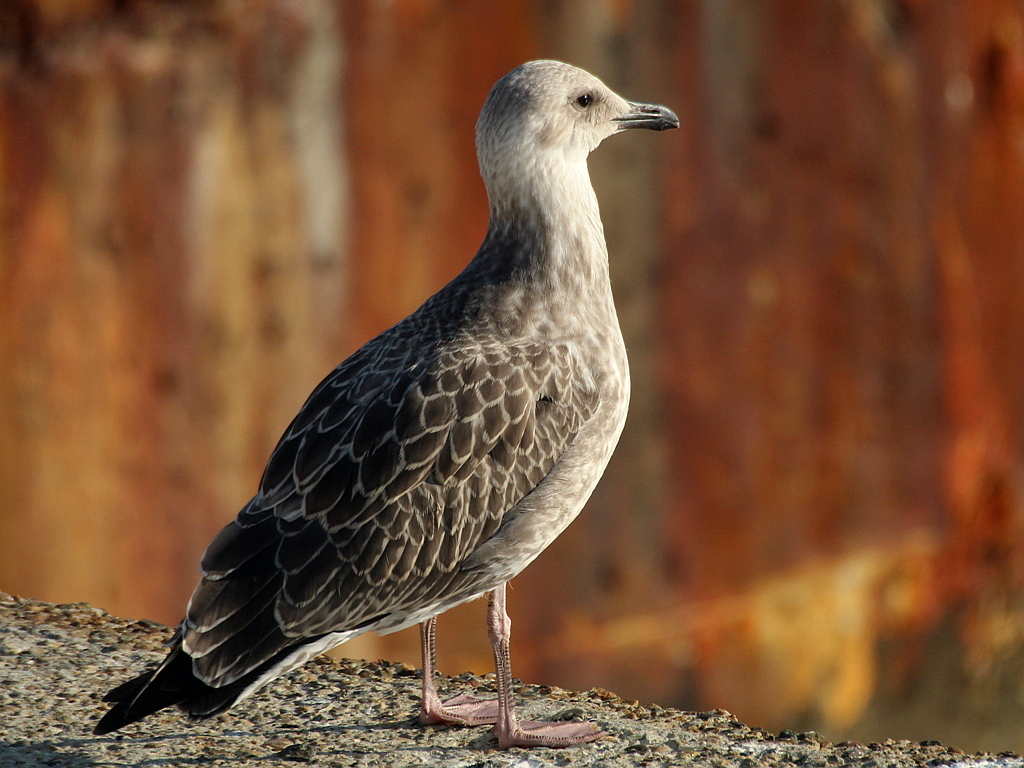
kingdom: Animalia
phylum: Chordata
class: Aves
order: Charadriiformes
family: Laridae
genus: Larus
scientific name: Larus michahellis
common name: Yellow-legged gull
